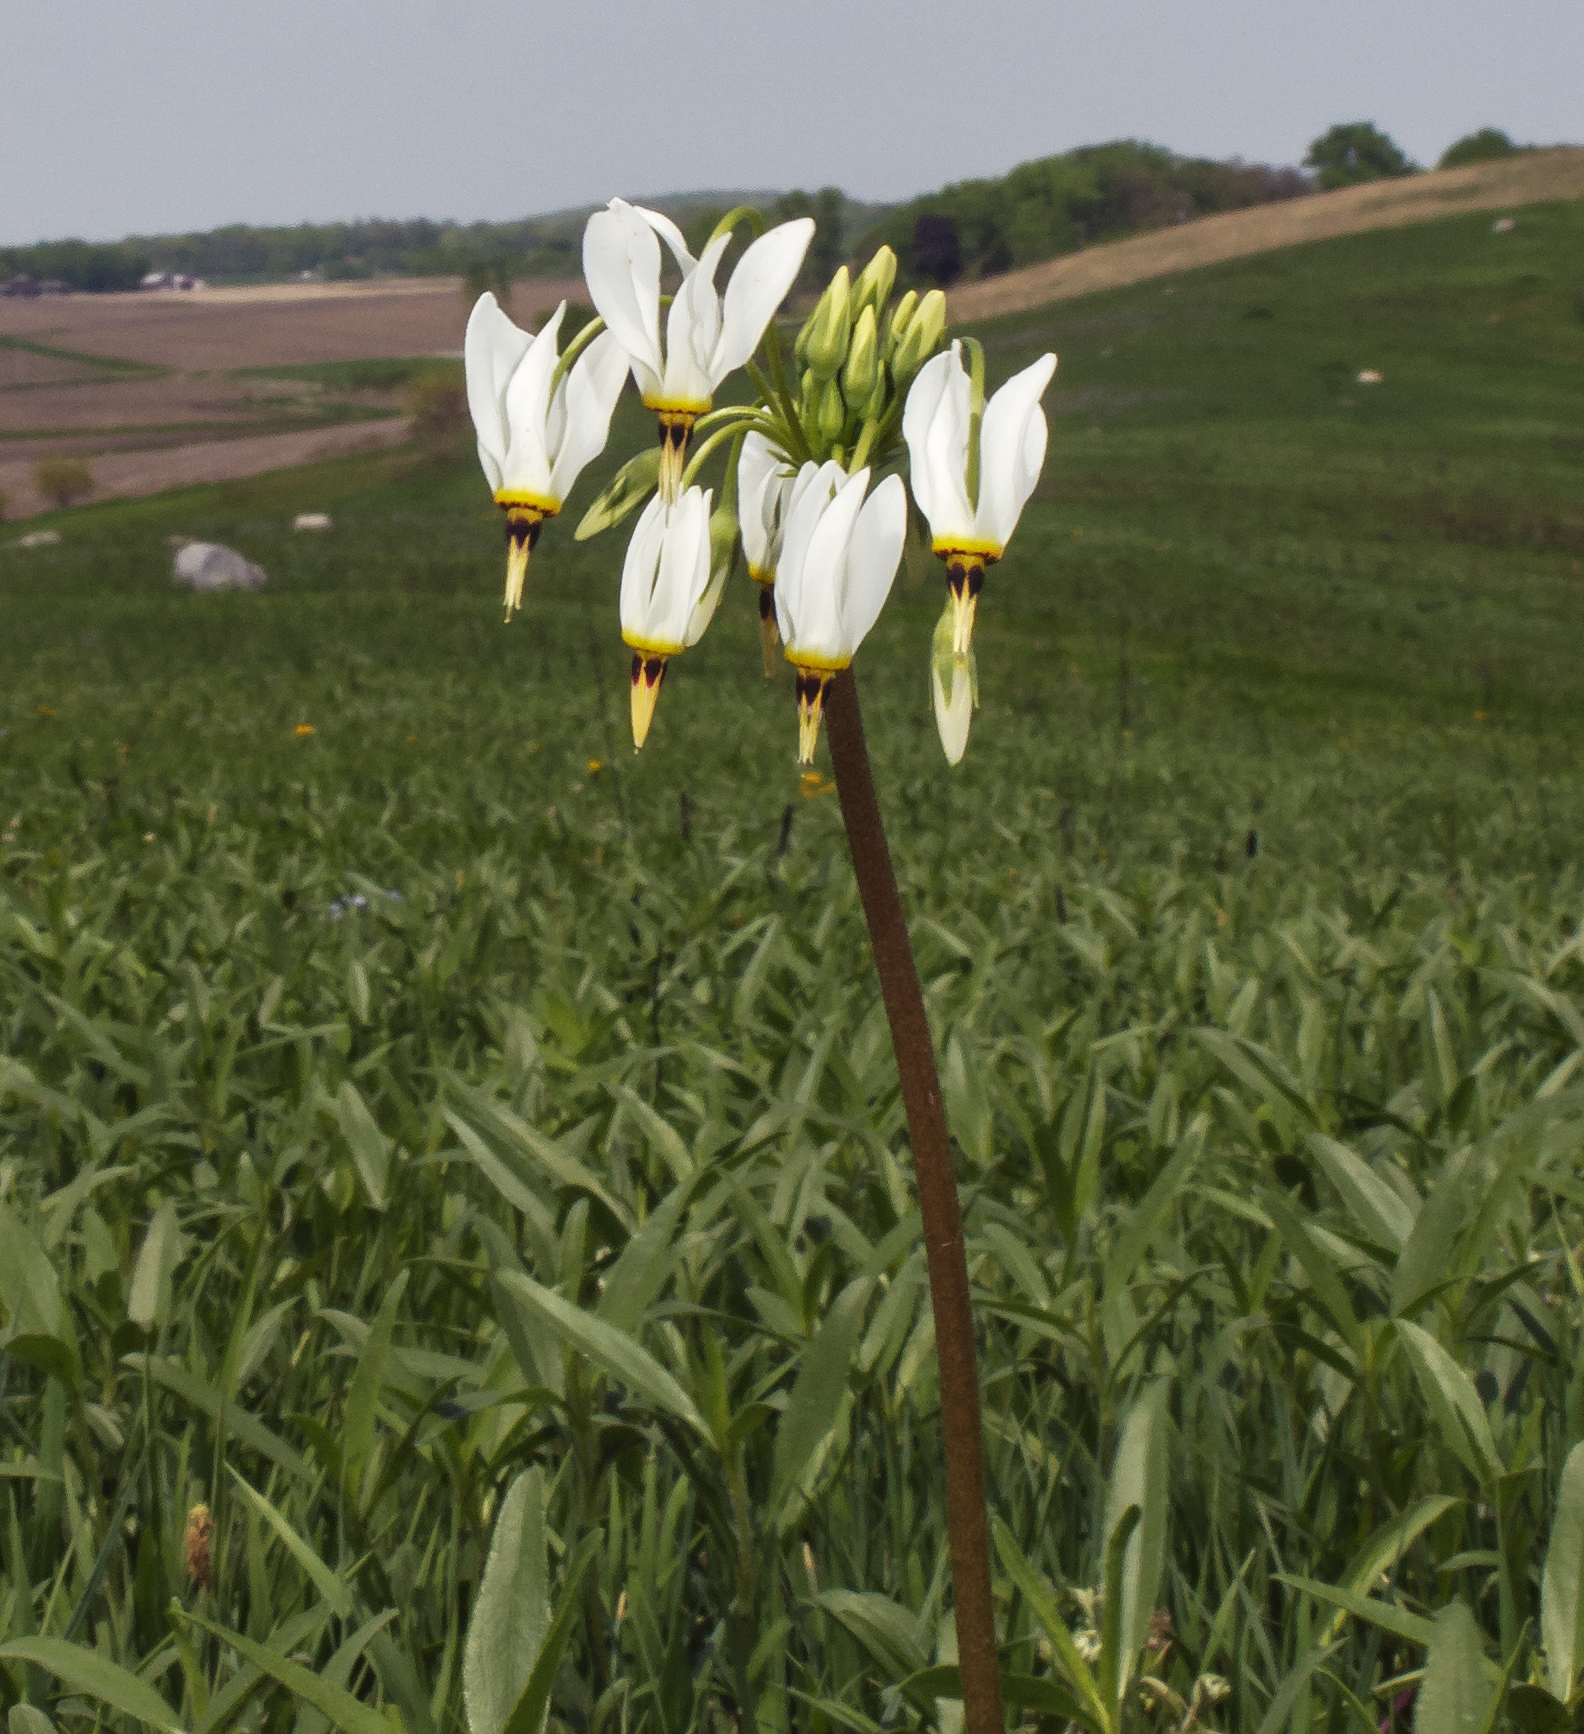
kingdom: Plantae
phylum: Tracheophyta
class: Magnoliopsida
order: Ericales
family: Primulaceae
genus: Dodecatheon
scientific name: Dodecatheon meadia
